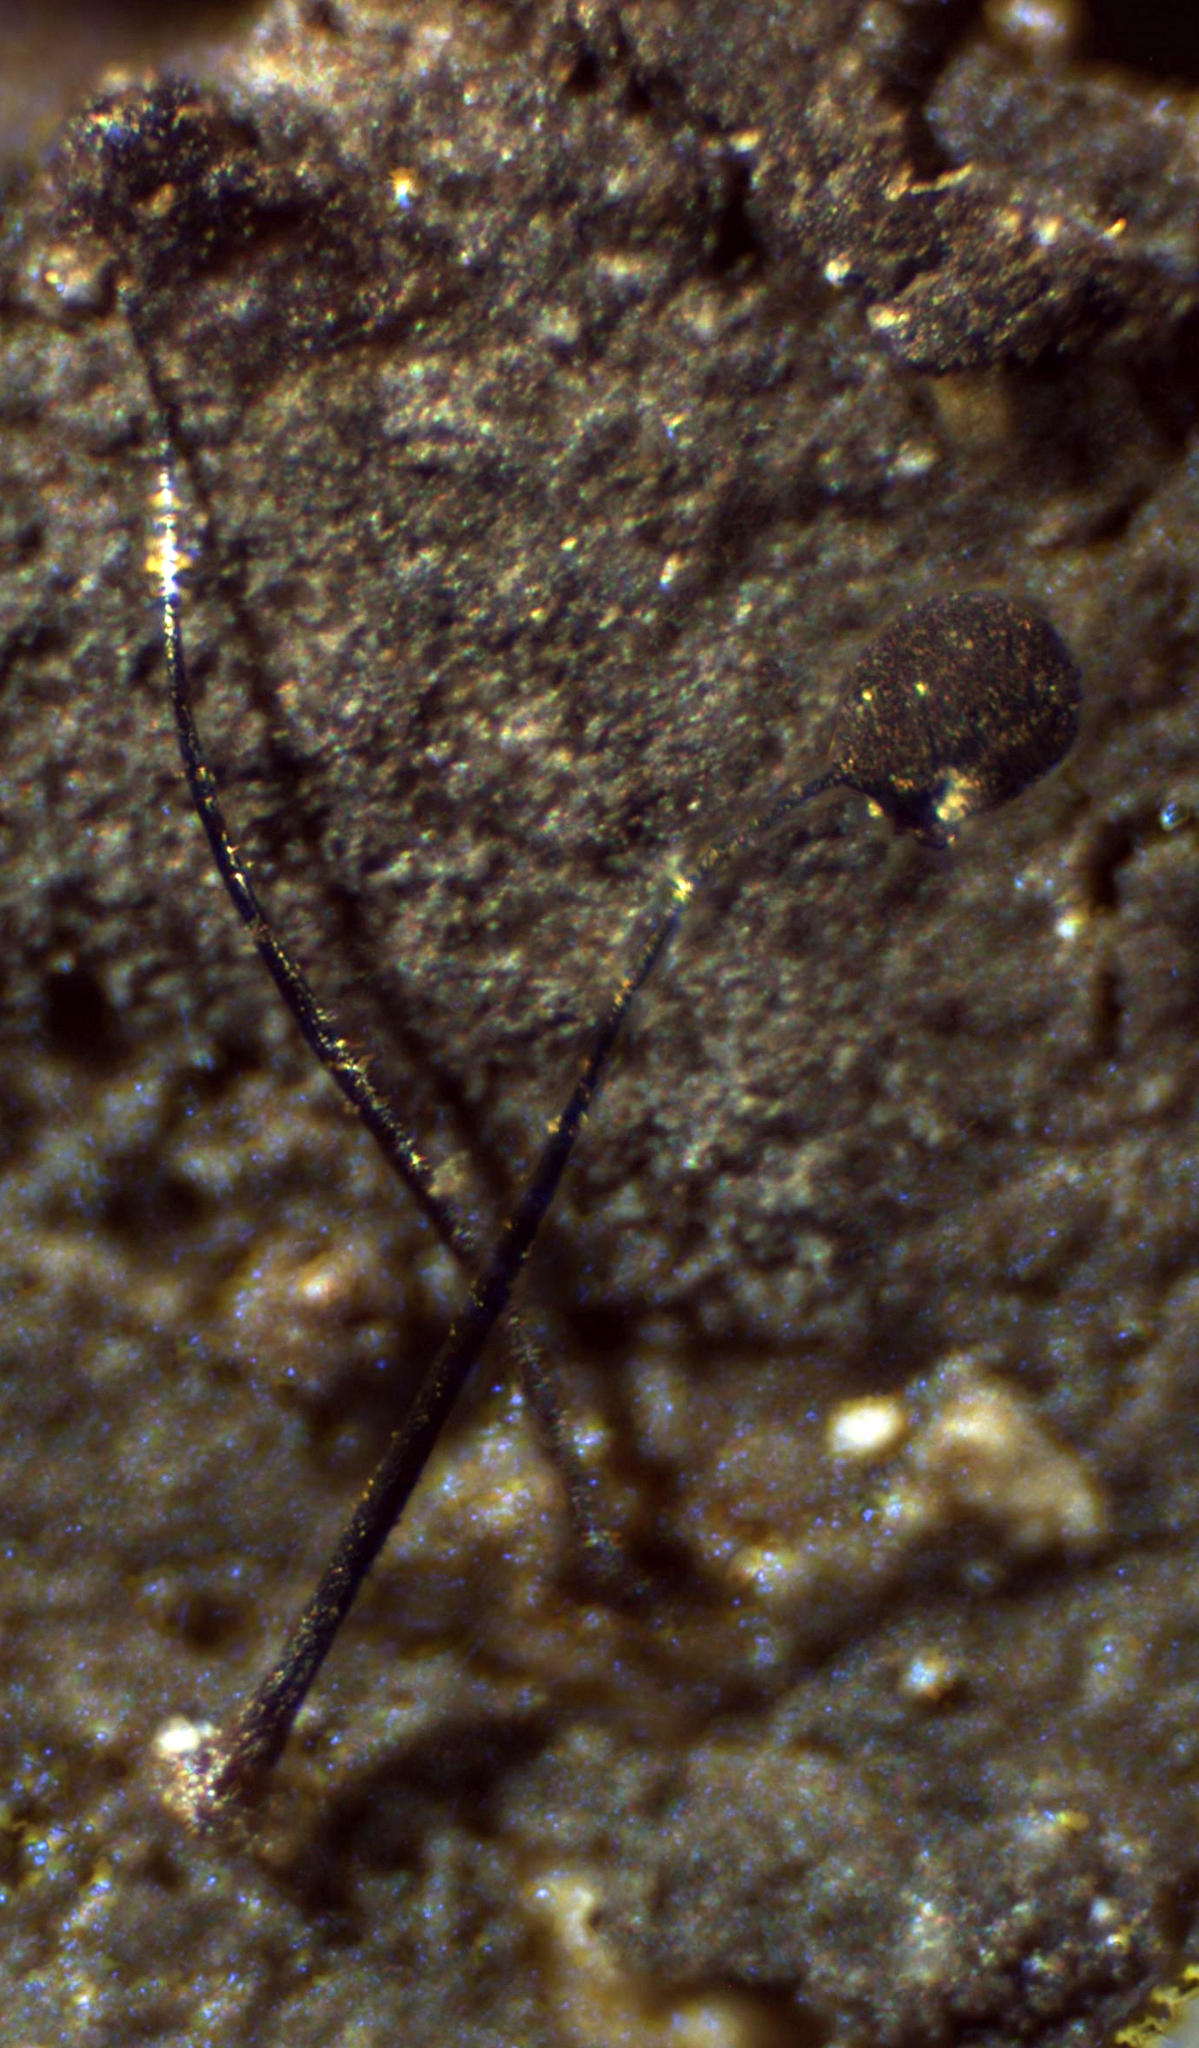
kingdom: Protozoa
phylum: Mycetozoa
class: Myxomycetes
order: Stemonitidales
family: Stemonitidaceae
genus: Comatricha
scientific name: Comatricha nigra
